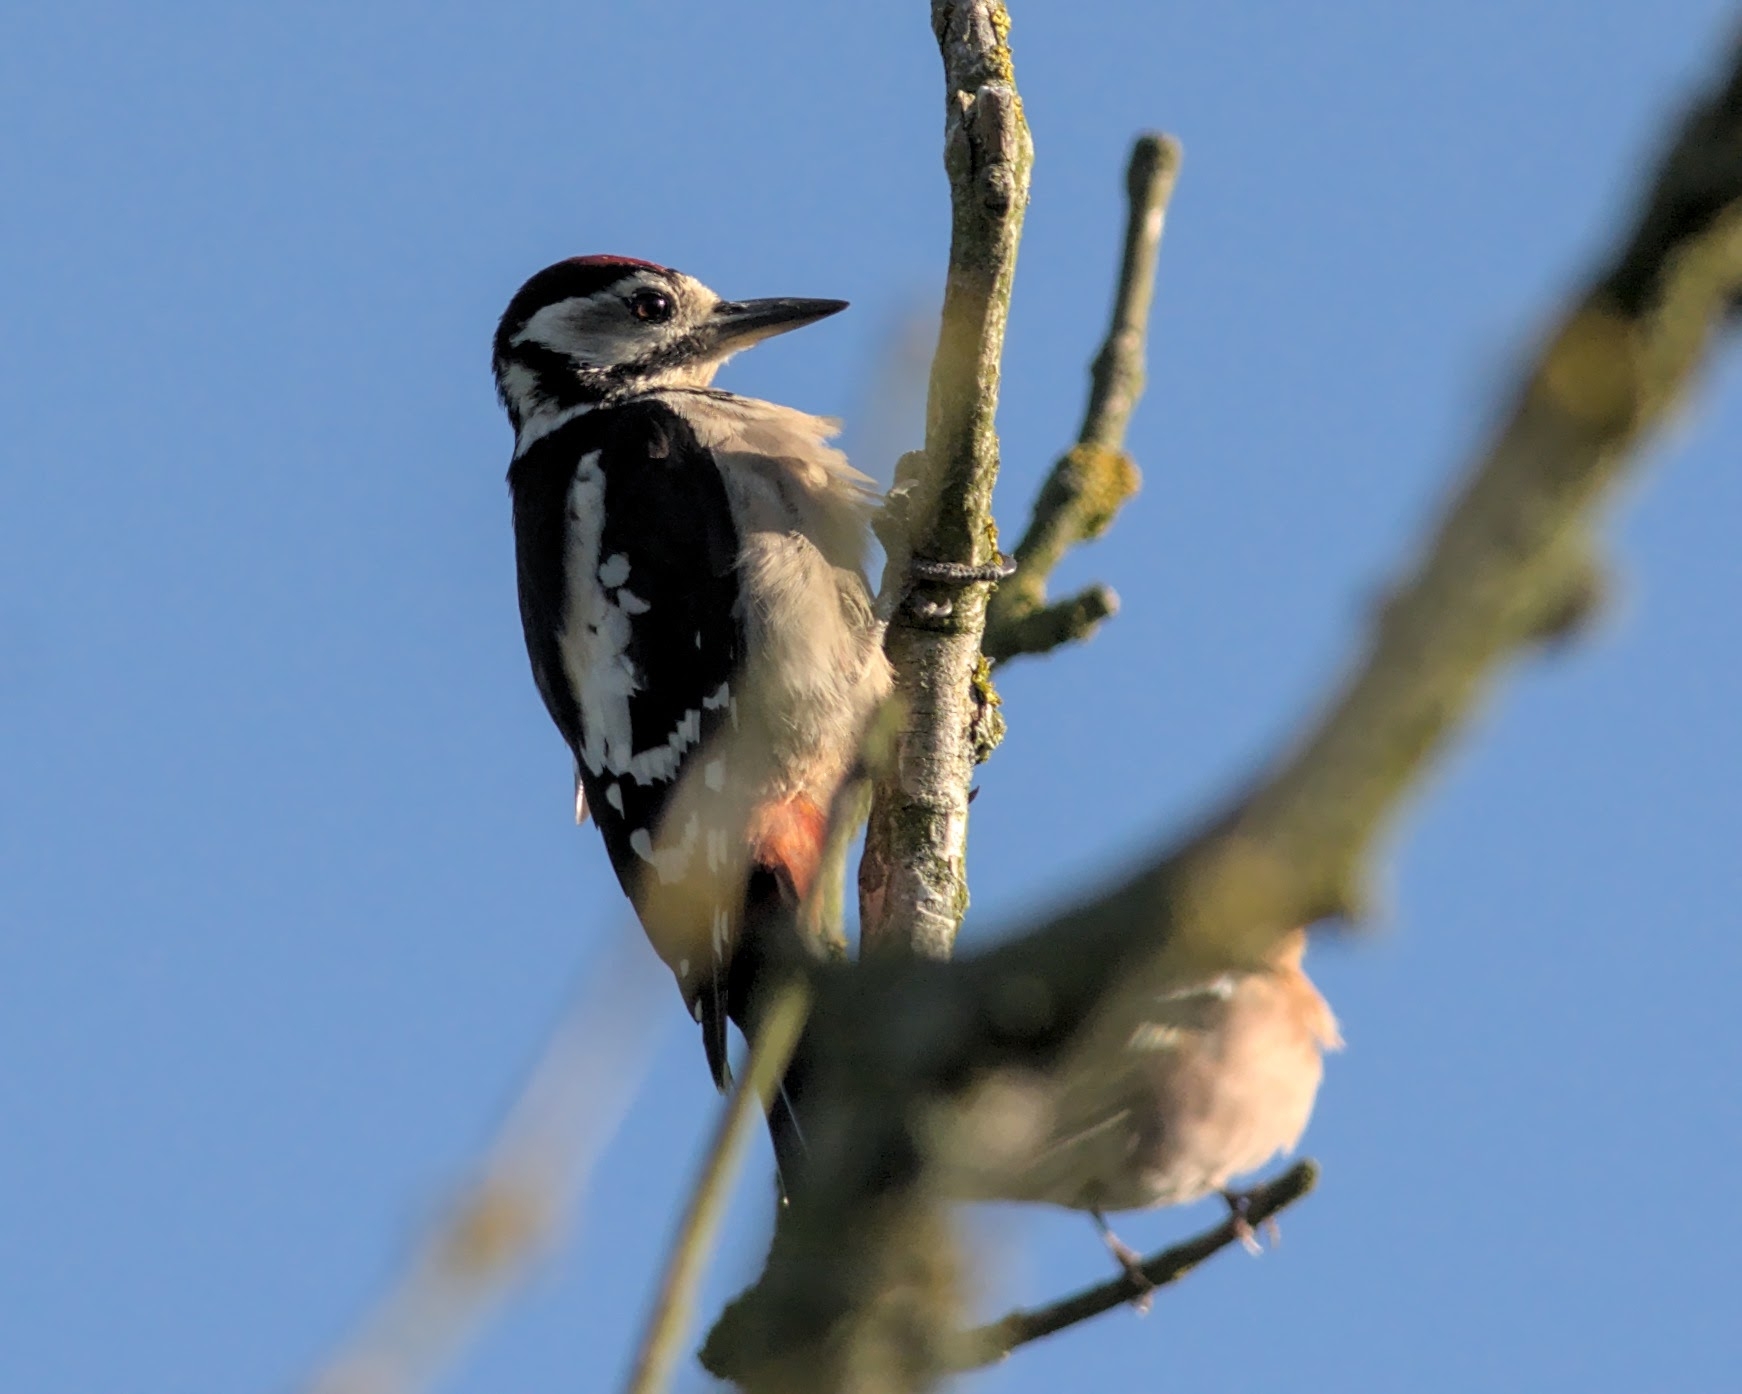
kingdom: Animalia
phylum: Chordata
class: Aves
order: Piciformes
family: Picidae
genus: Dendrocopos
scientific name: Dendrocopos major
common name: Great spotted woodpecker
